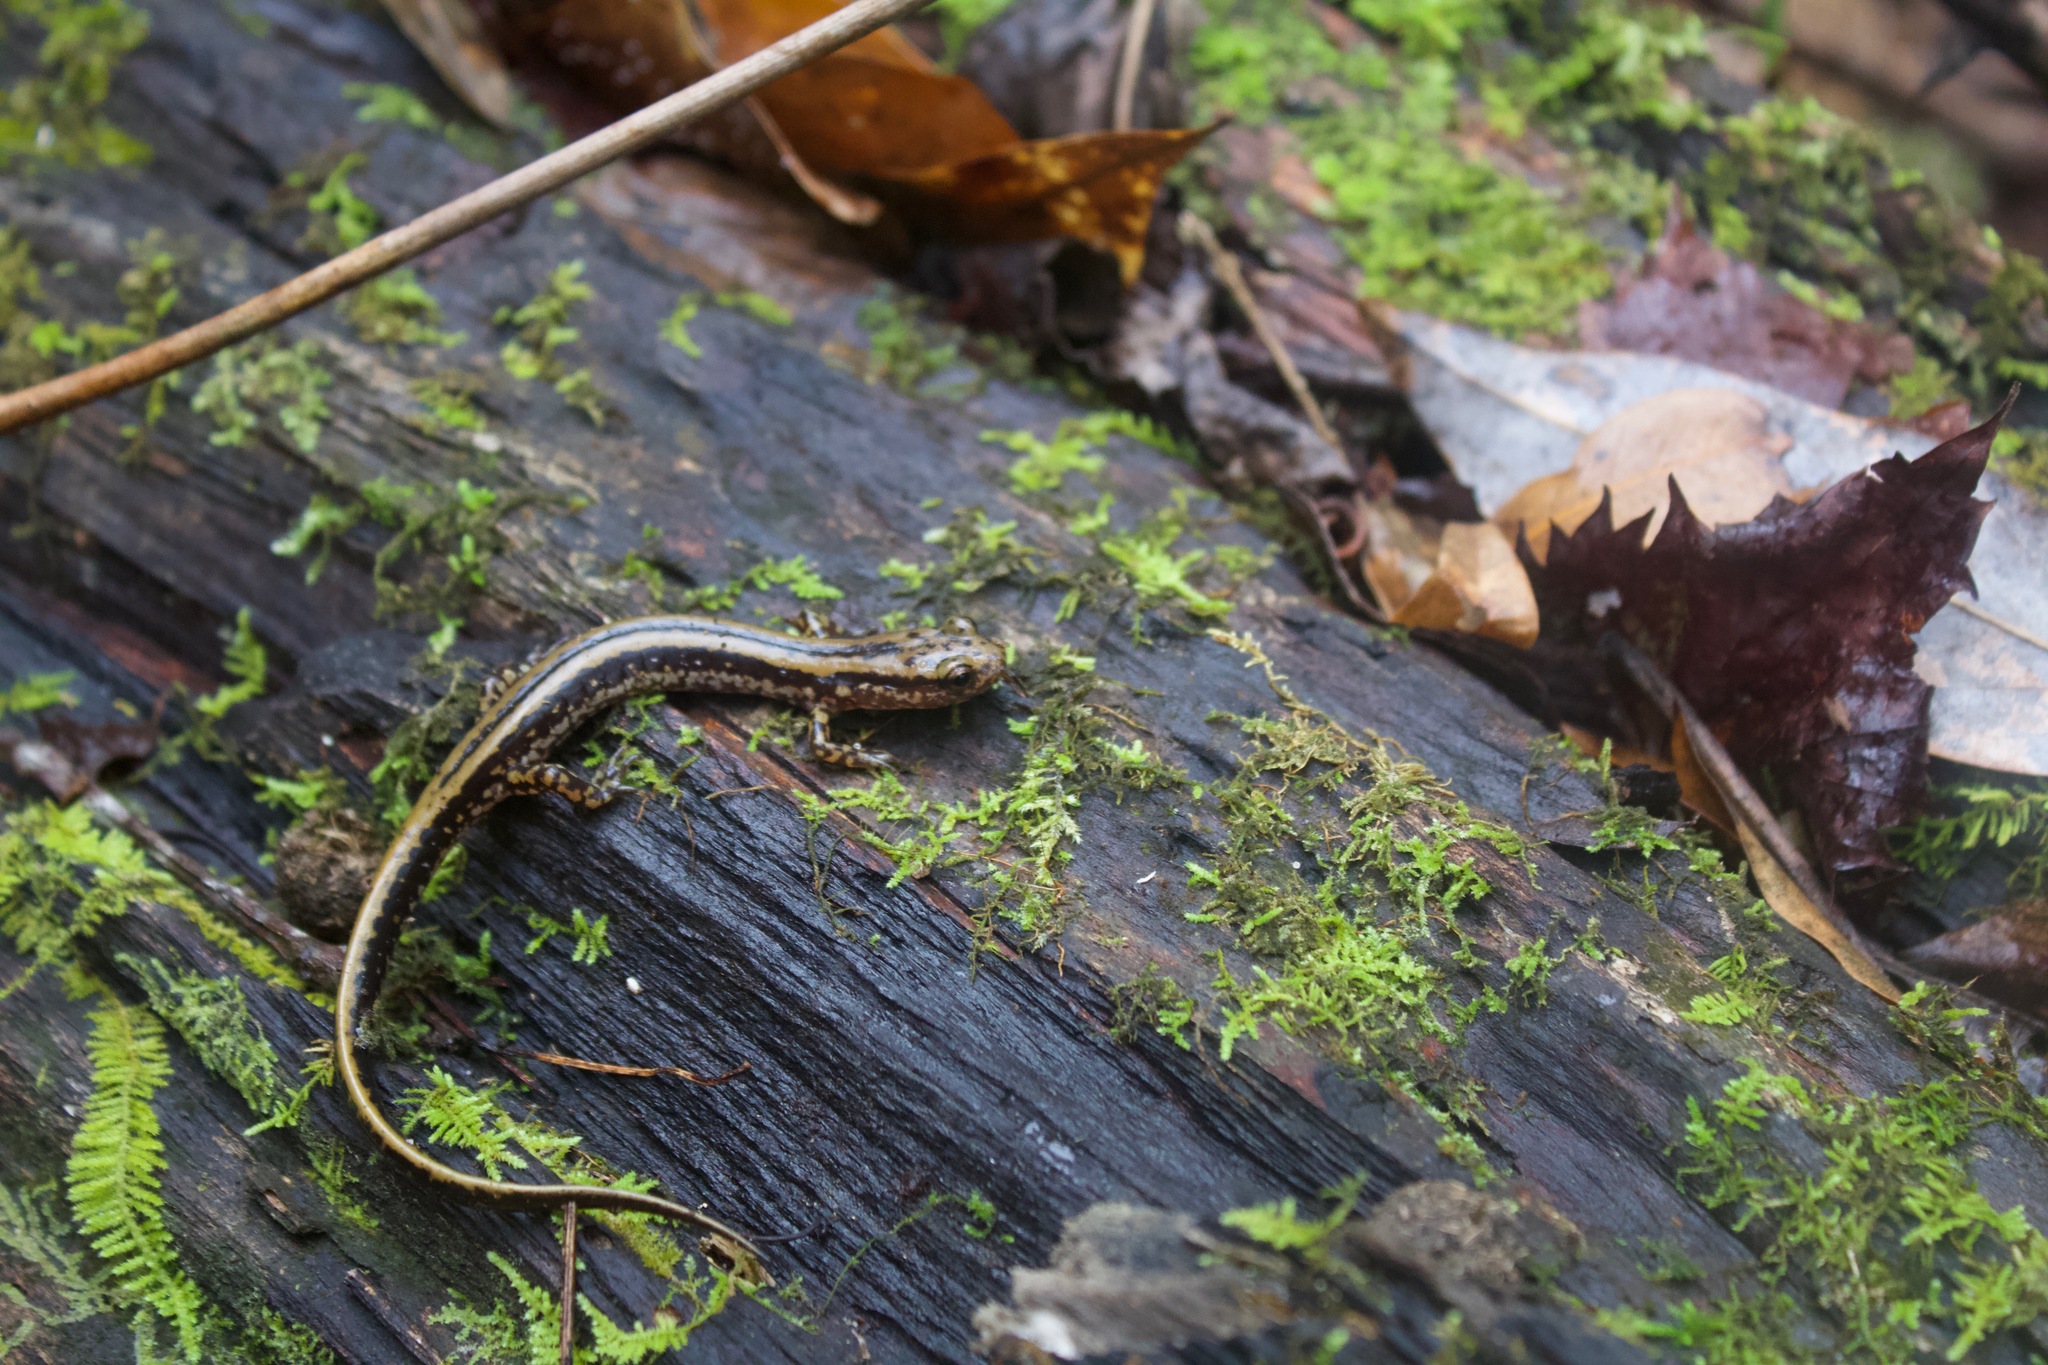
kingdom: Animalia
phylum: Chordata
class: Amphibia
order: Caudata
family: Plethodontidae
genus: Eurycea
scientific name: Eurycea guttolineata
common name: Three-lined salamander
